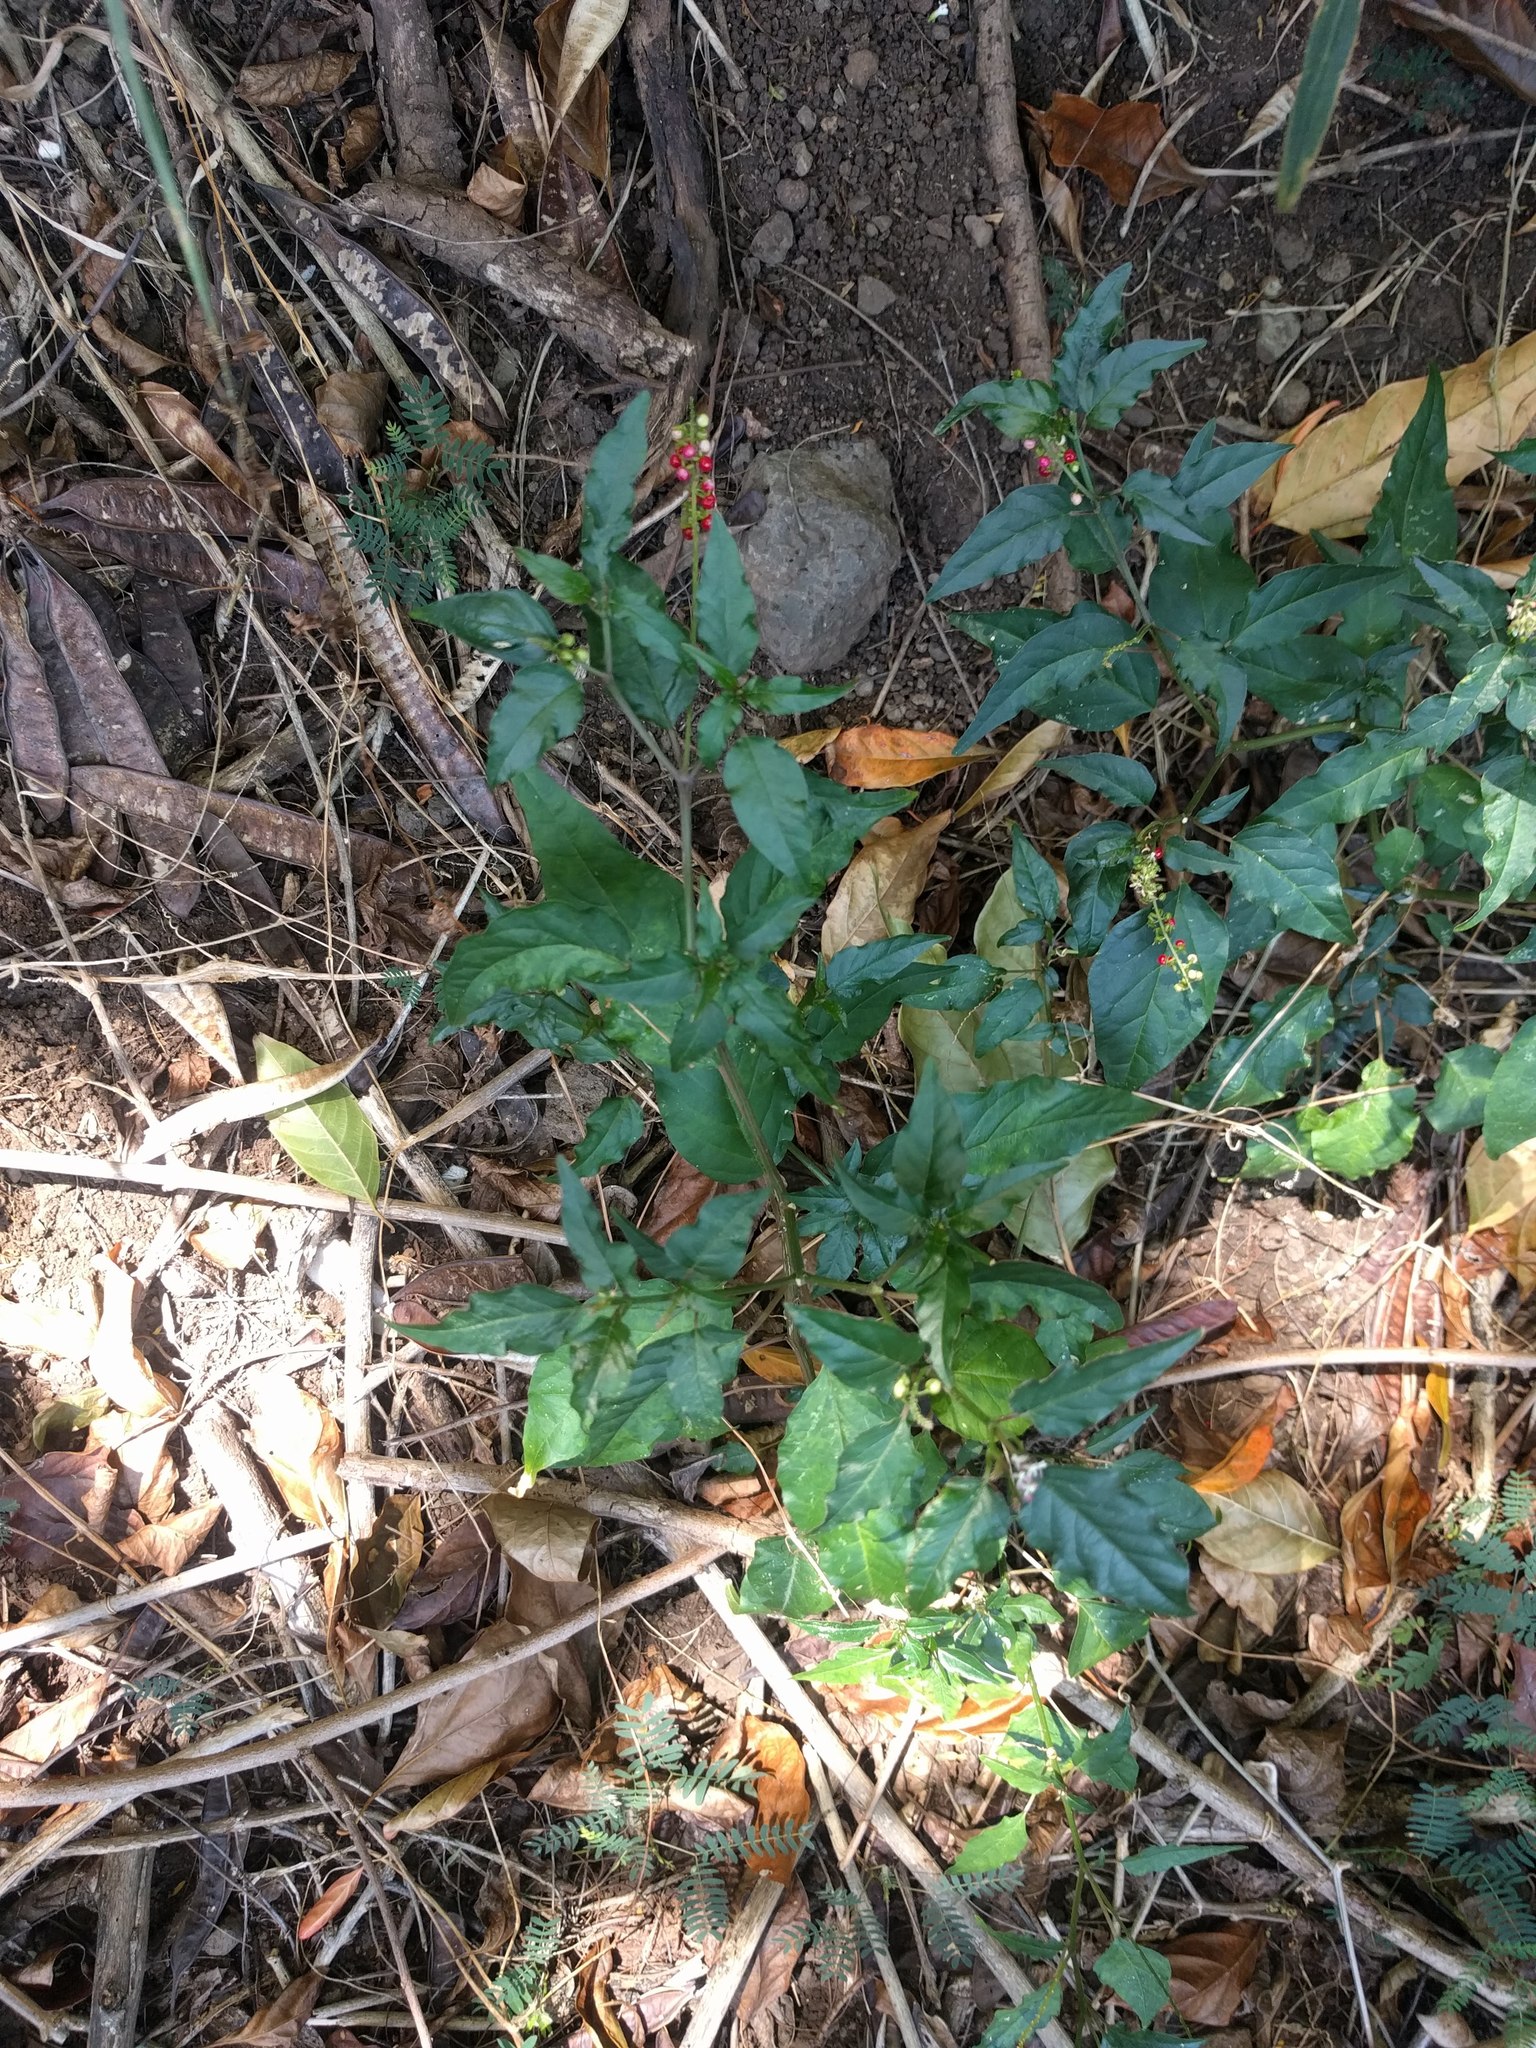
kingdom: Plantae
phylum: Tracheophyta
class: Magnoliopsida
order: Caryophyllales
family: Phytolaccaceae
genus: Rivina
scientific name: Rivina humilis
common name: Rougeplant
